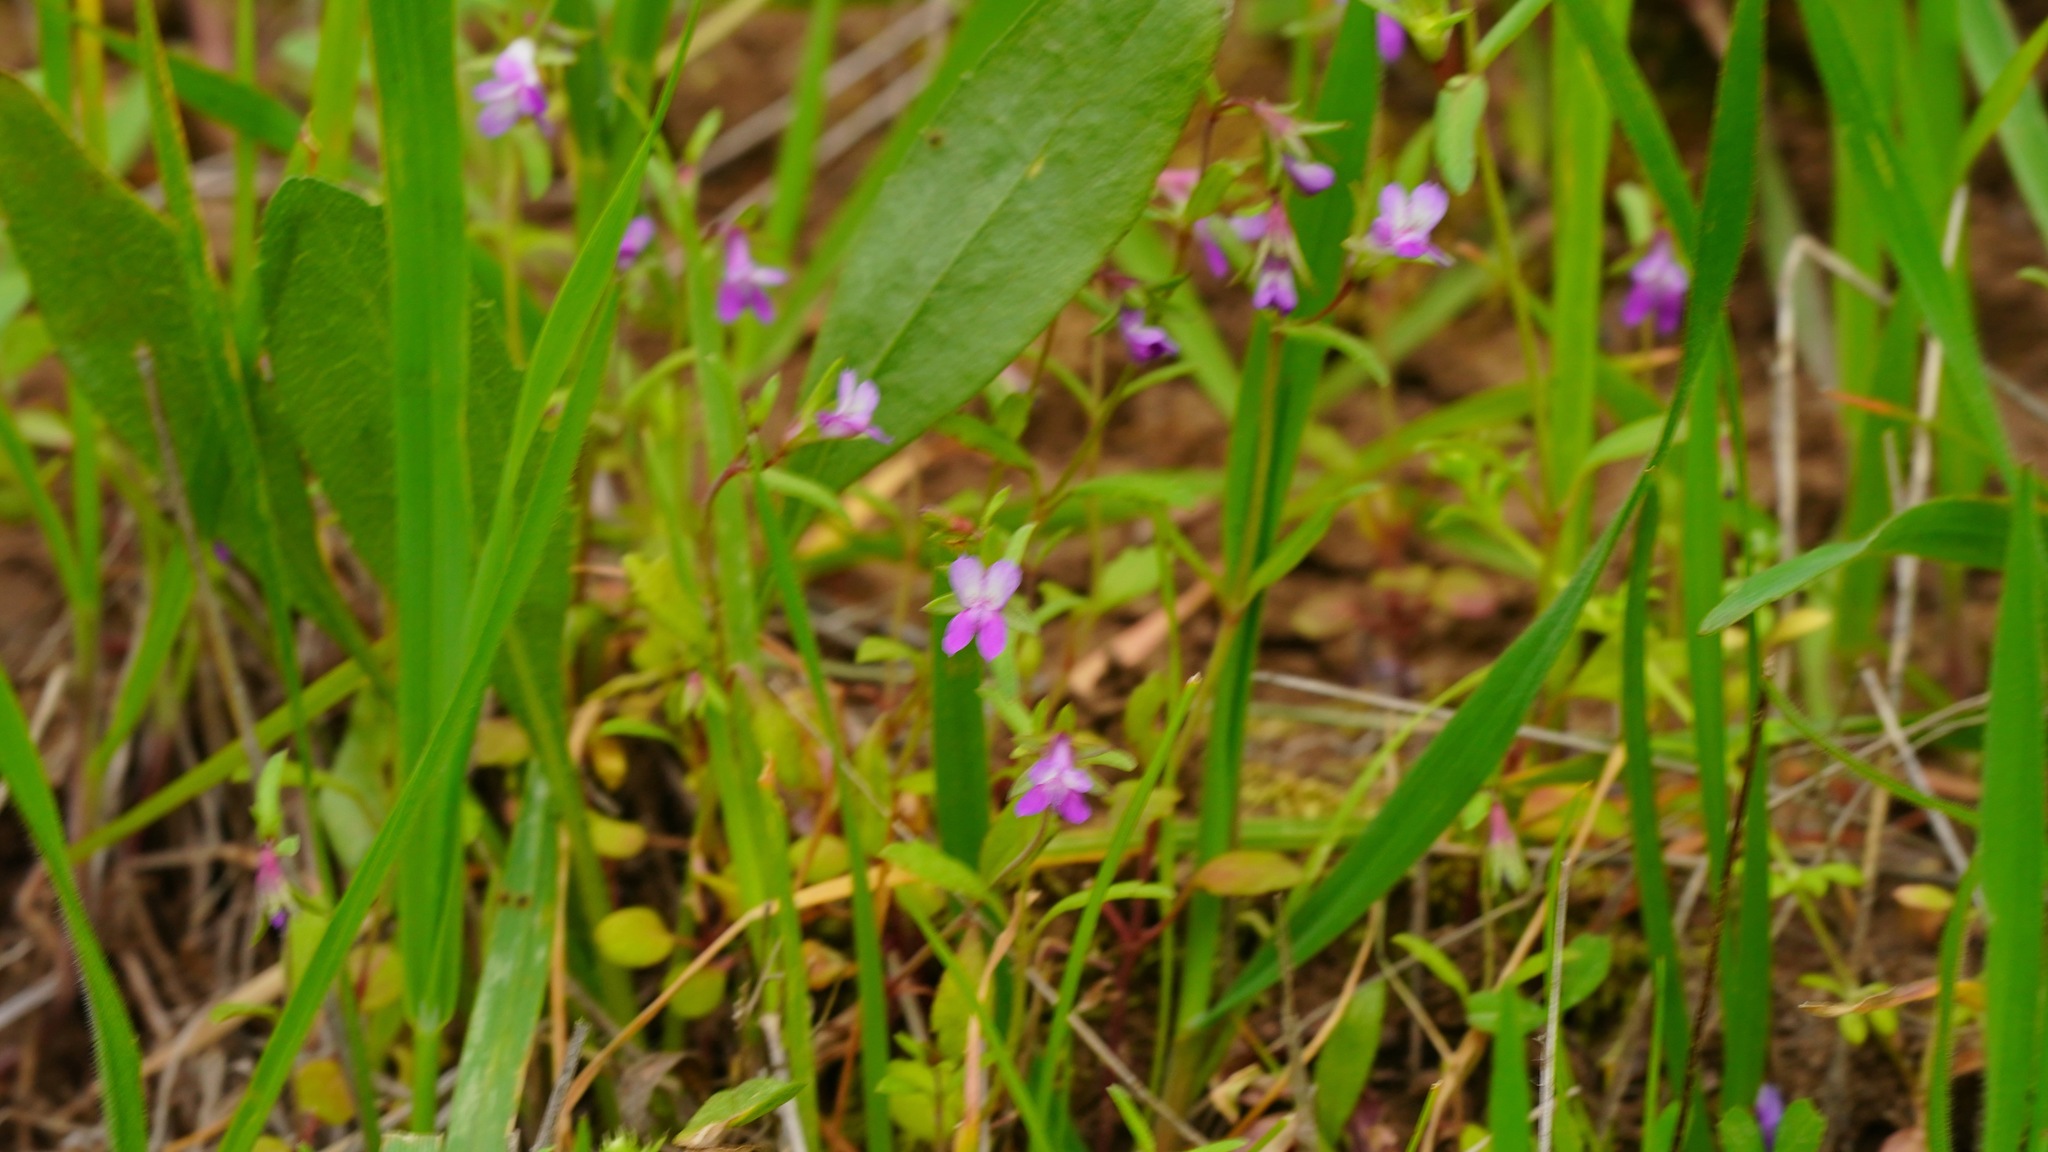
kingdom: Plantae
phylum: Tracheophyta
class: Magnoliopsida
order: Lamiales
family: Plantaginaceae
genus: Collinsia
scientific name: Collinsia sparsiflora
